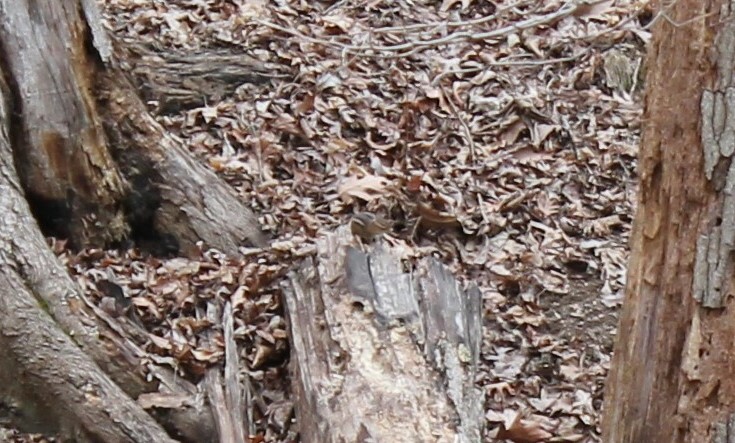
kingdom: Animalia
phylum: Chordata
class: Mammalia
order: Rodentia
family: Sciuridae
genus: Tamias
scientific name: Tamias striatus
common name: Eastern chipmunk
